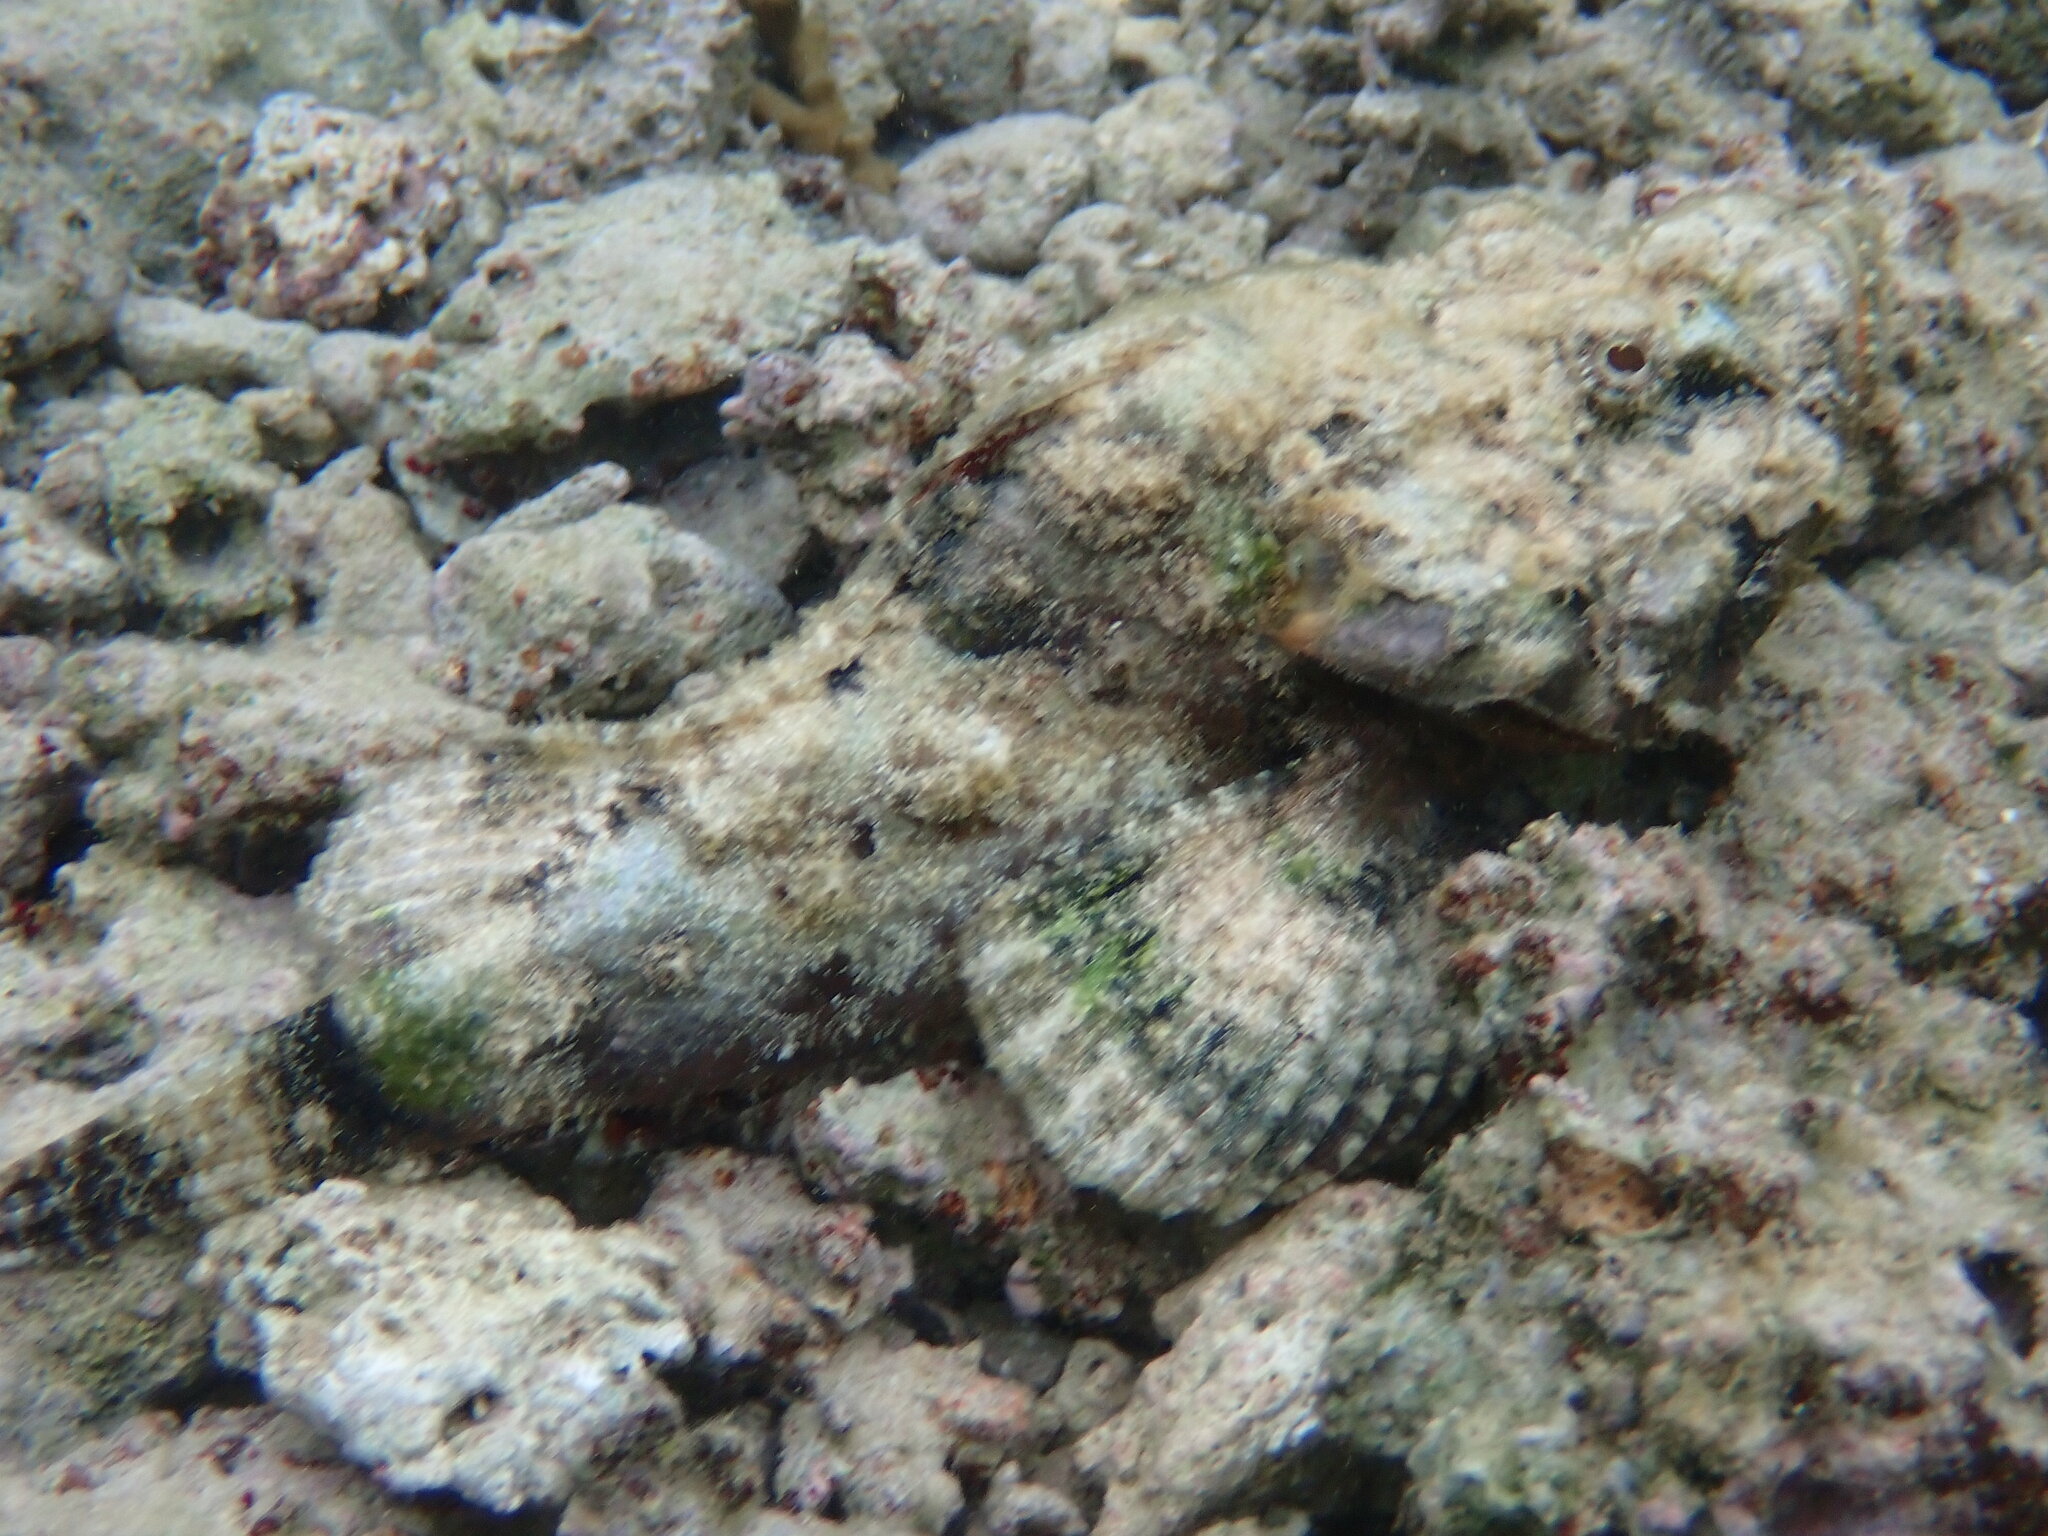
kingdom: Animalia
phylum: Chordata
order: Scorpaeniformes
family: Scorpaenidae
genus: Scorpaenopsis
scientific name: Scorpaenopsis diabolus
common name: False stonefish
